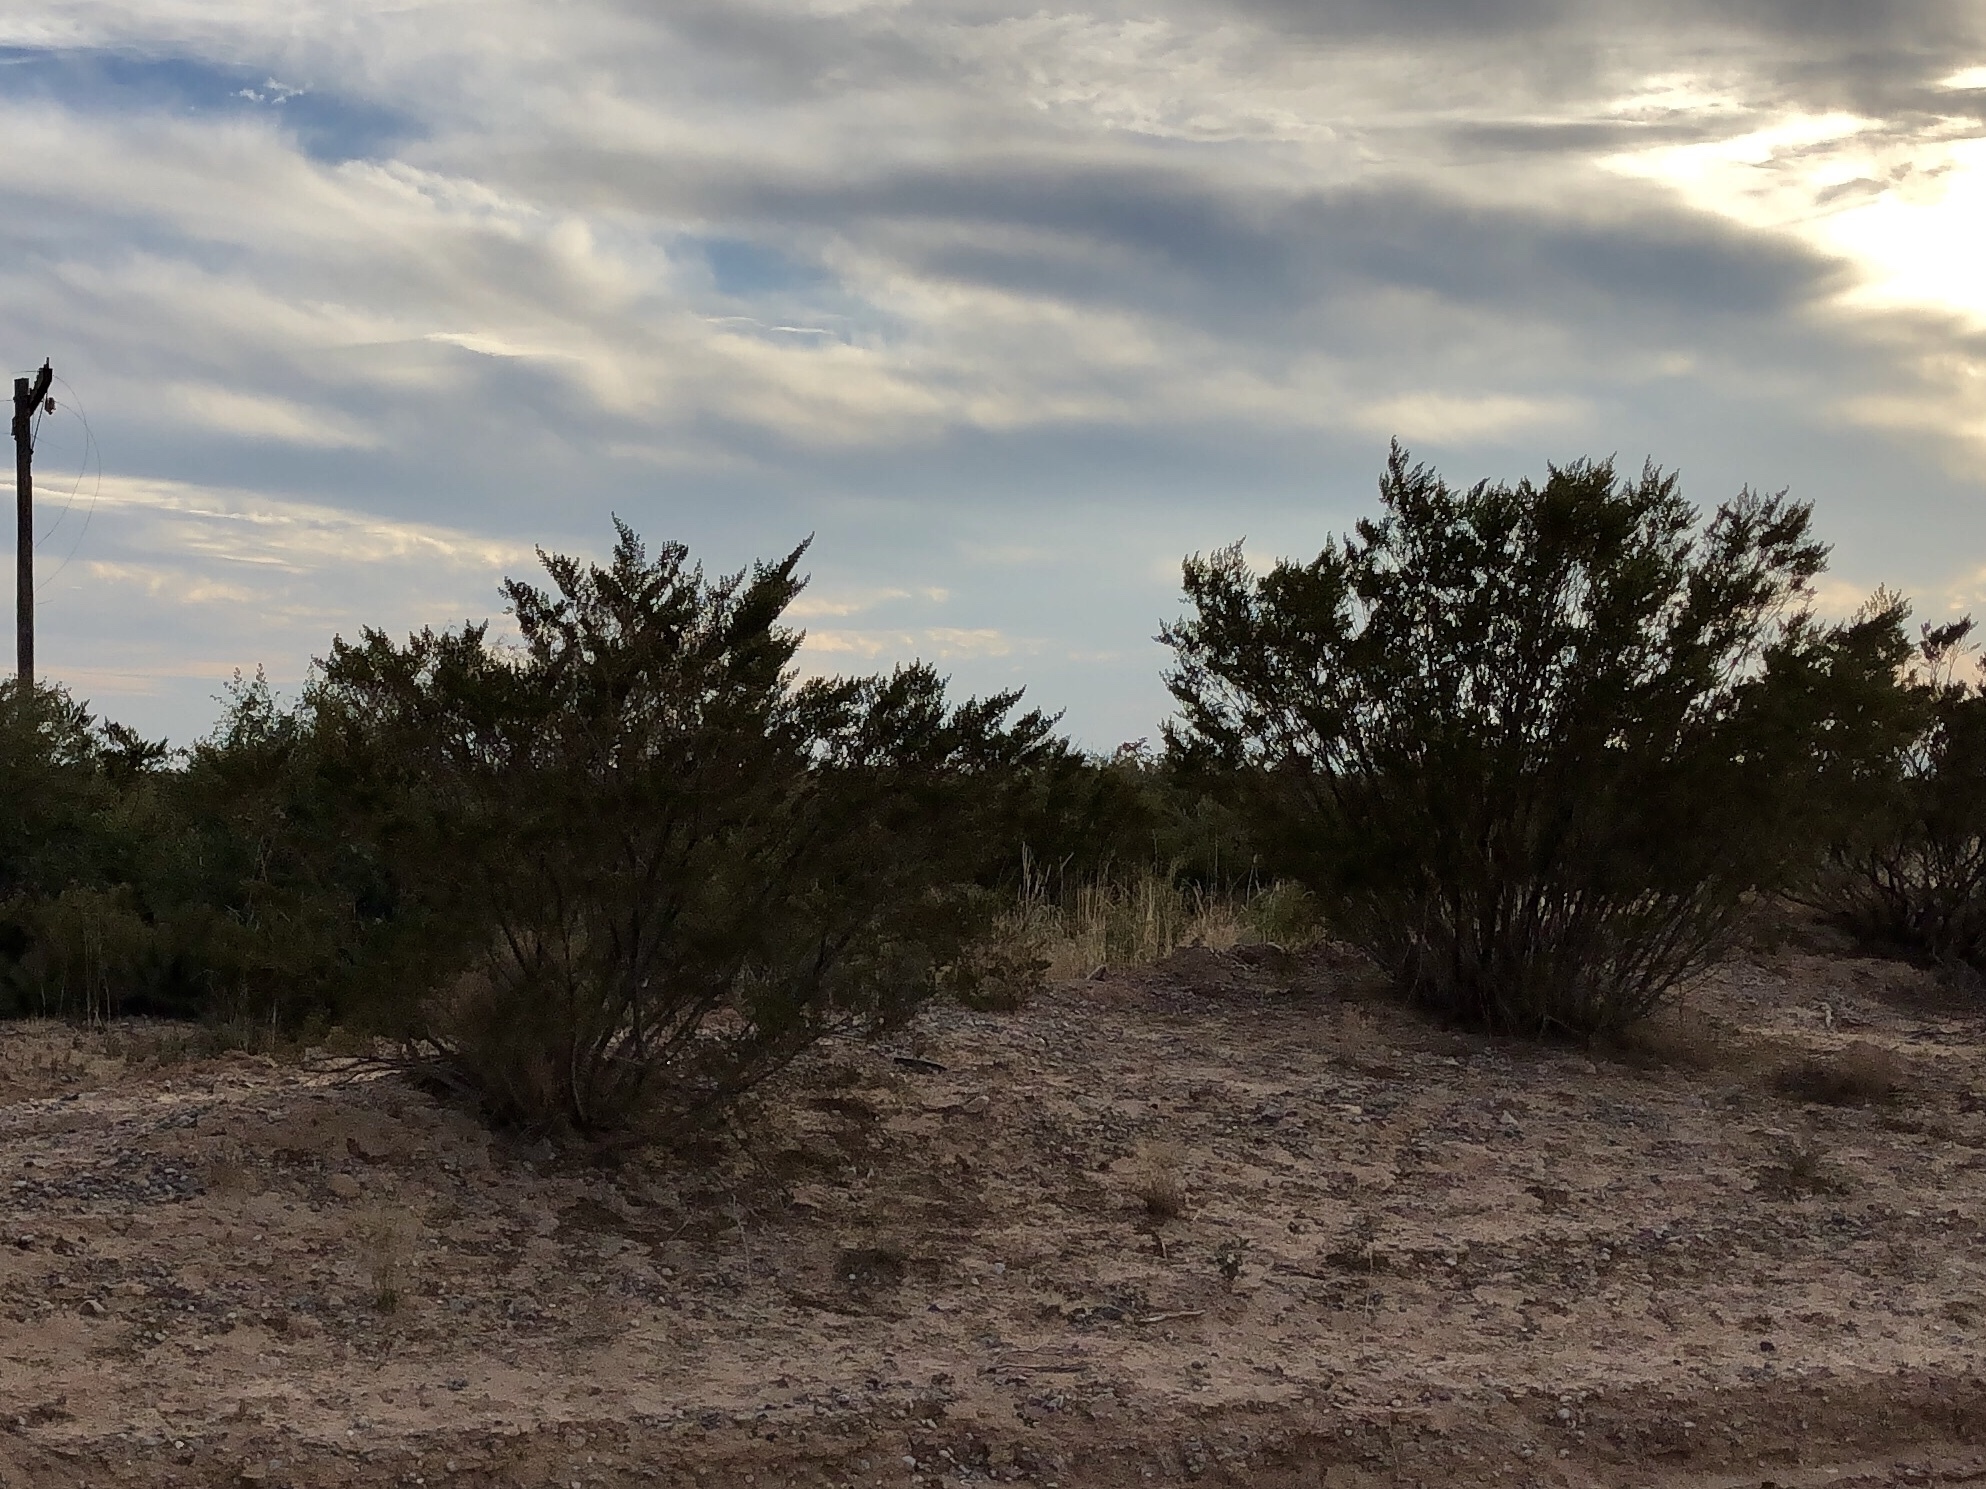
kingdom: Plantae
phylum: Tracheophyta
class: Magnoliopsida
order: Zygophyllales
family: Zygophyllaceae
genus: Larrea
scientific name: Larrea tridentata
